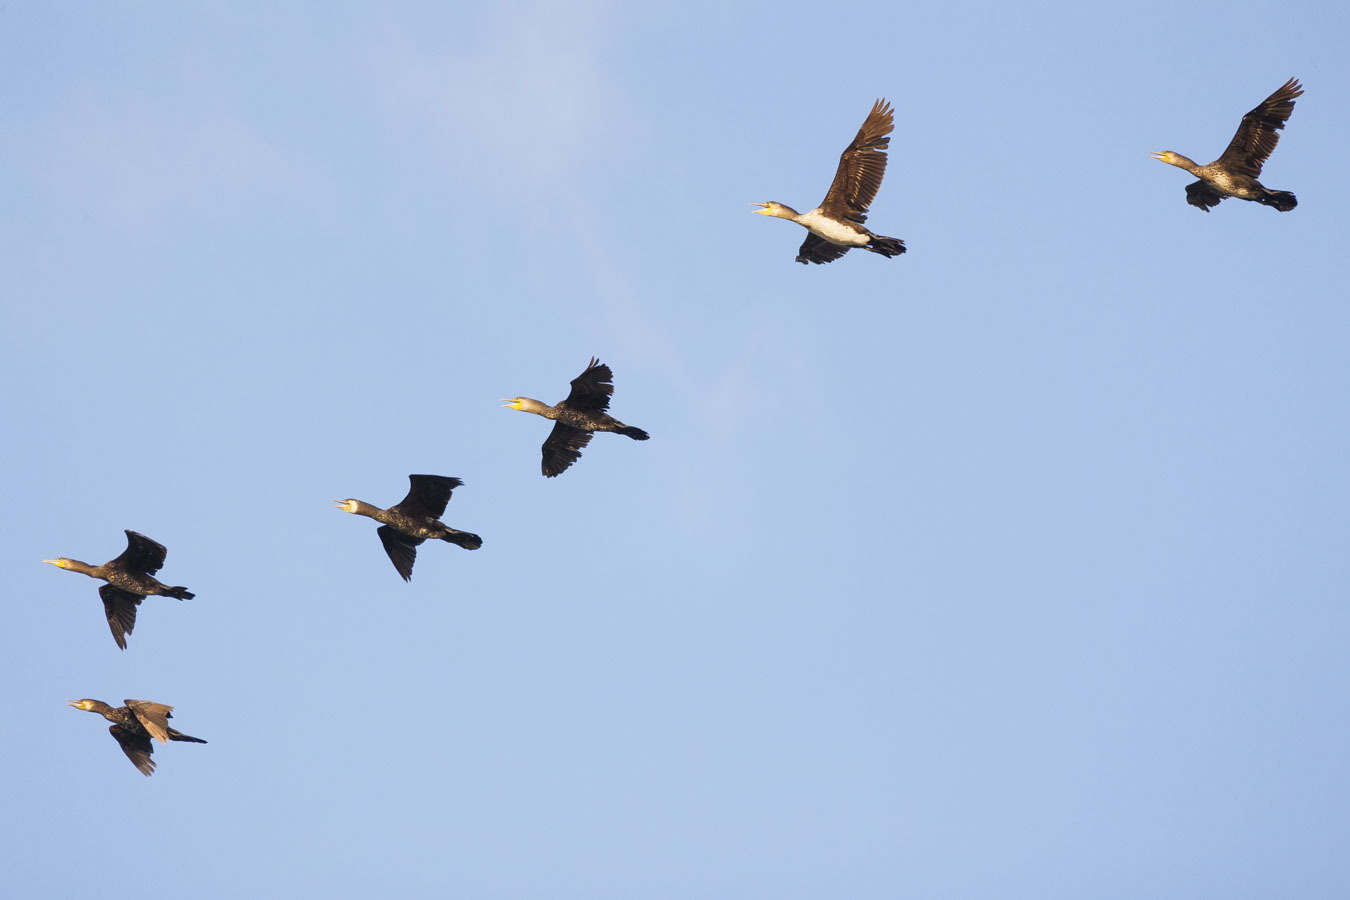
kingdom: Animalia
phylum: Chordata
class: Aves
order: Suliformes
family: Phalacrocoracidae
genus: Phalacrocorax
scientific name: Phalacrocorax carbo
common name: Great cormorant
